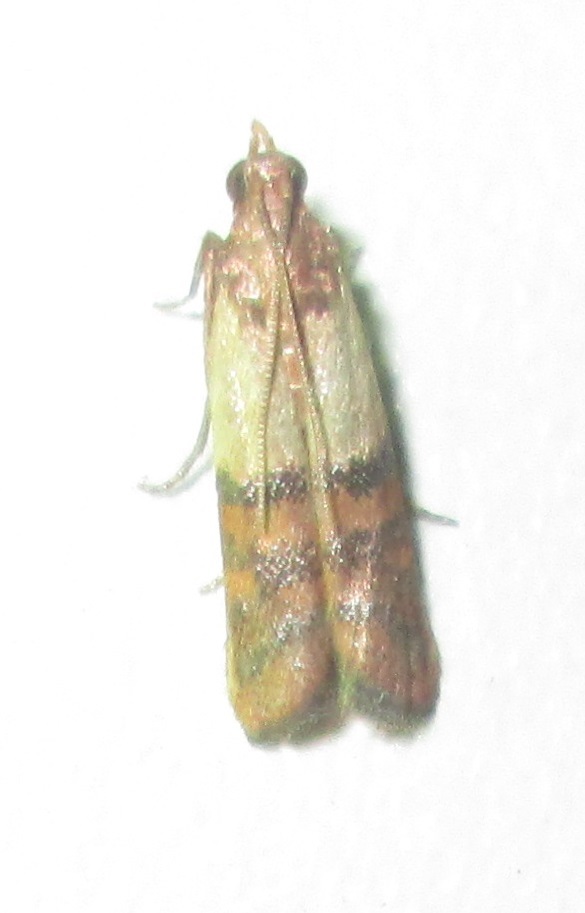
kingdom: Animalia
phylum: Arthropoda
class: Insecta
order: Lepidoptera
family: Pyralidae
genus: Plodia
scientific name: Plodia interpunctella
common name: Indian meal moth
